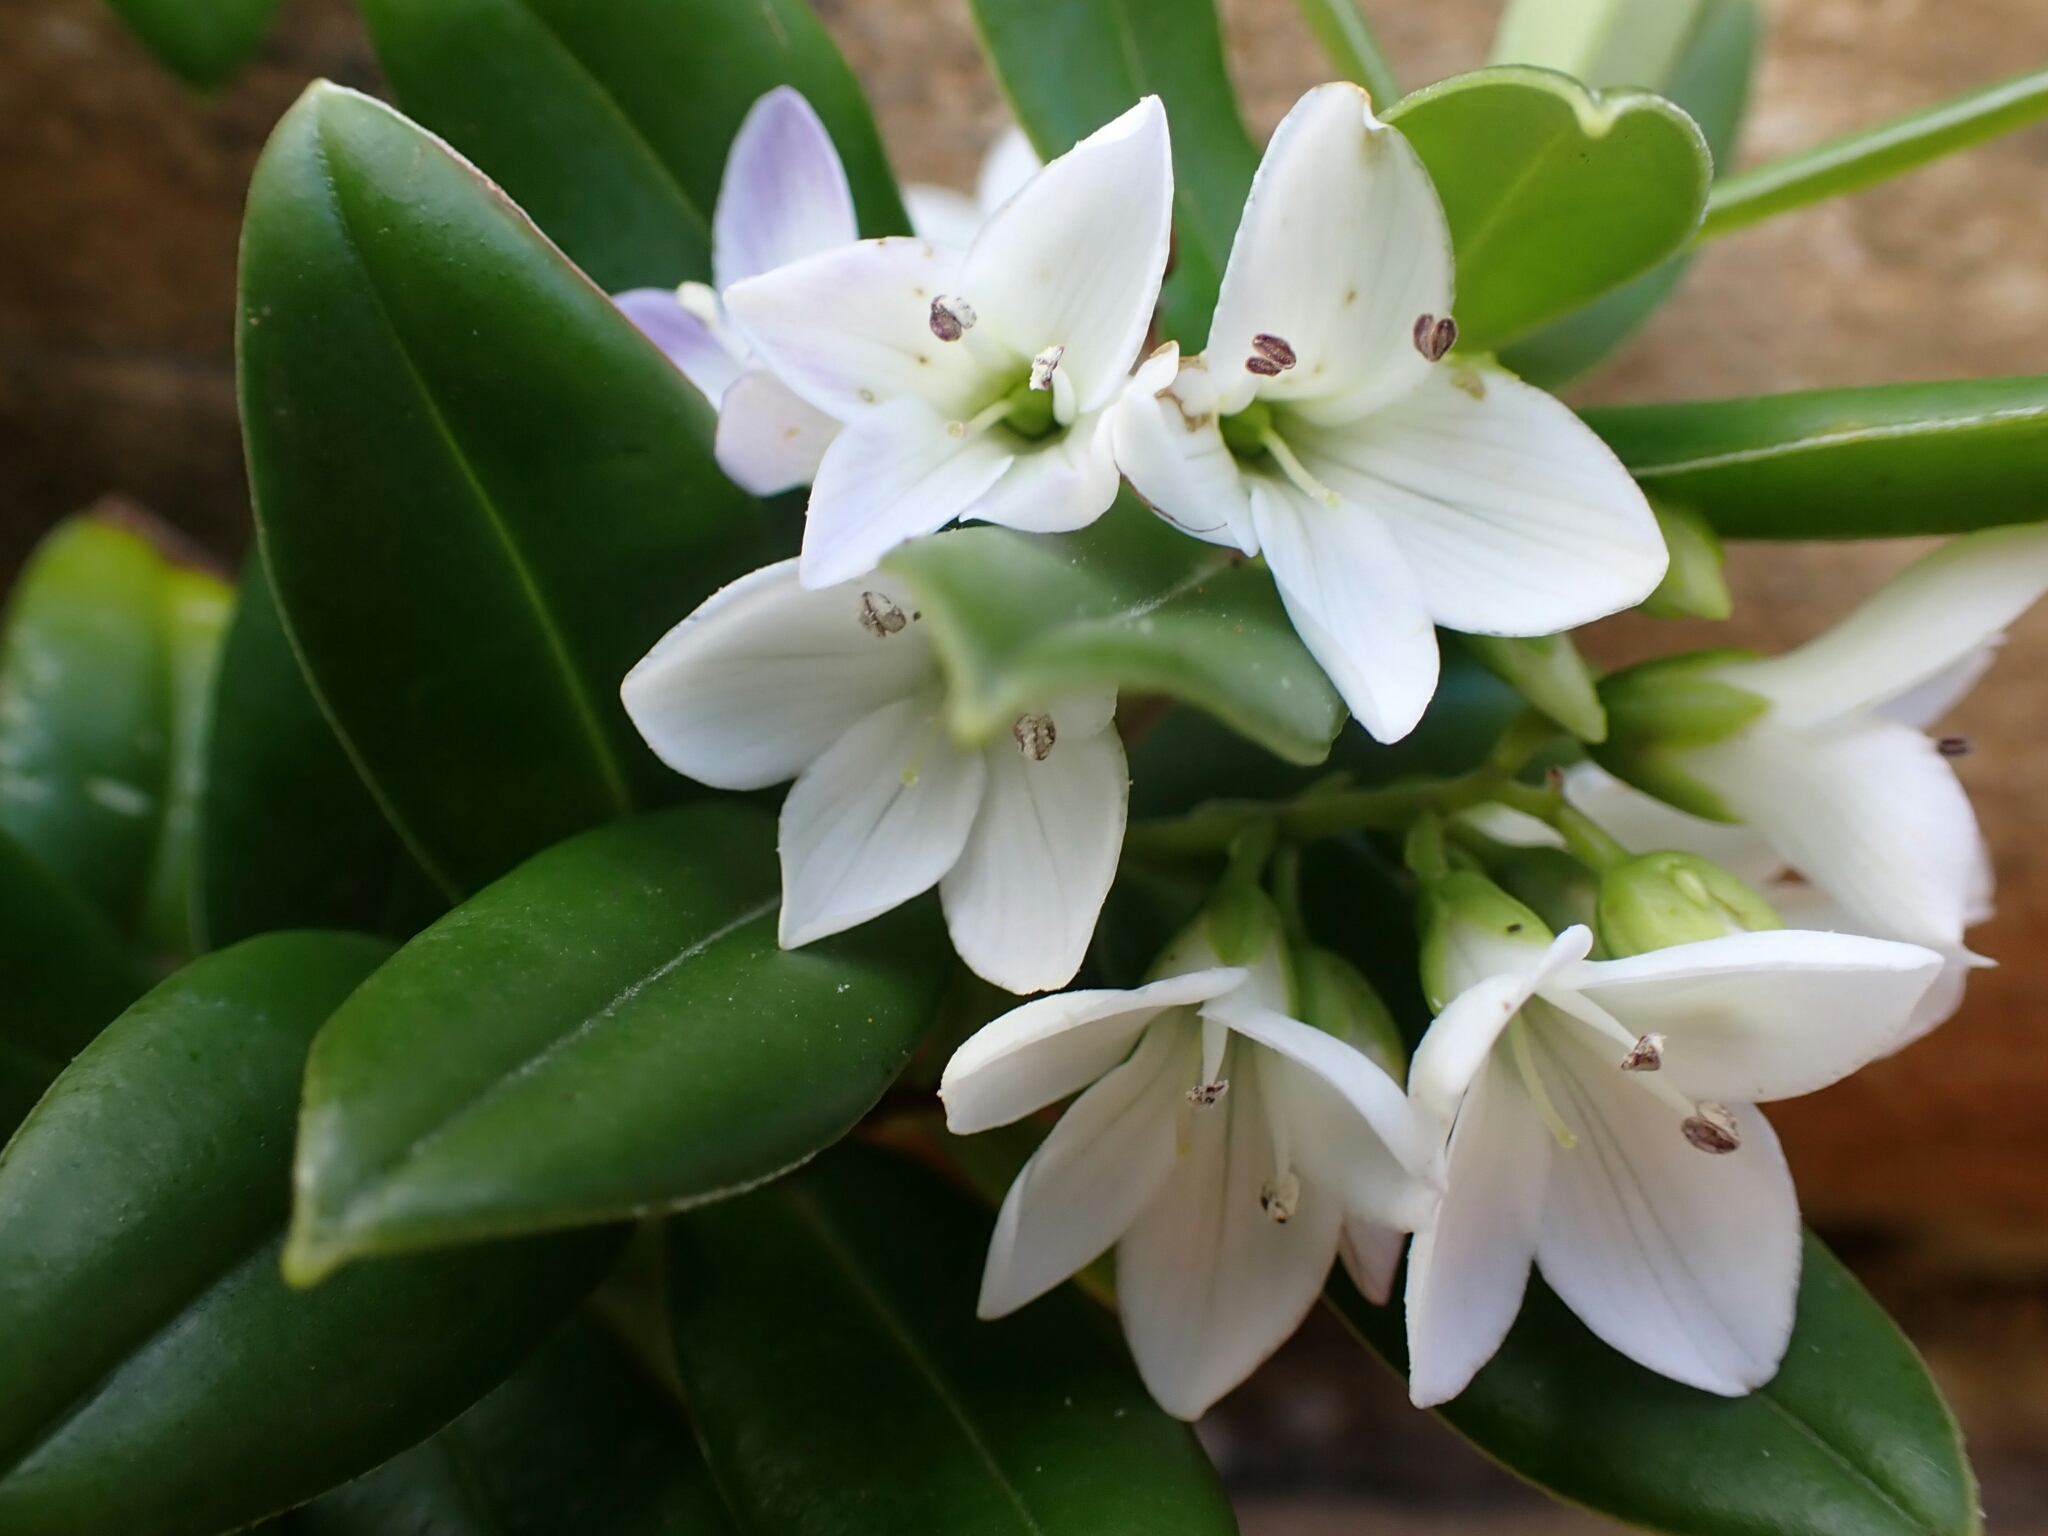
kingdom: Plantae
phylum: Tracheophyta
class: Magnoliopsida
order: Lamiales
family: Plantaginaceae
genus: Veronica
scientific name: Veronica elliptica
